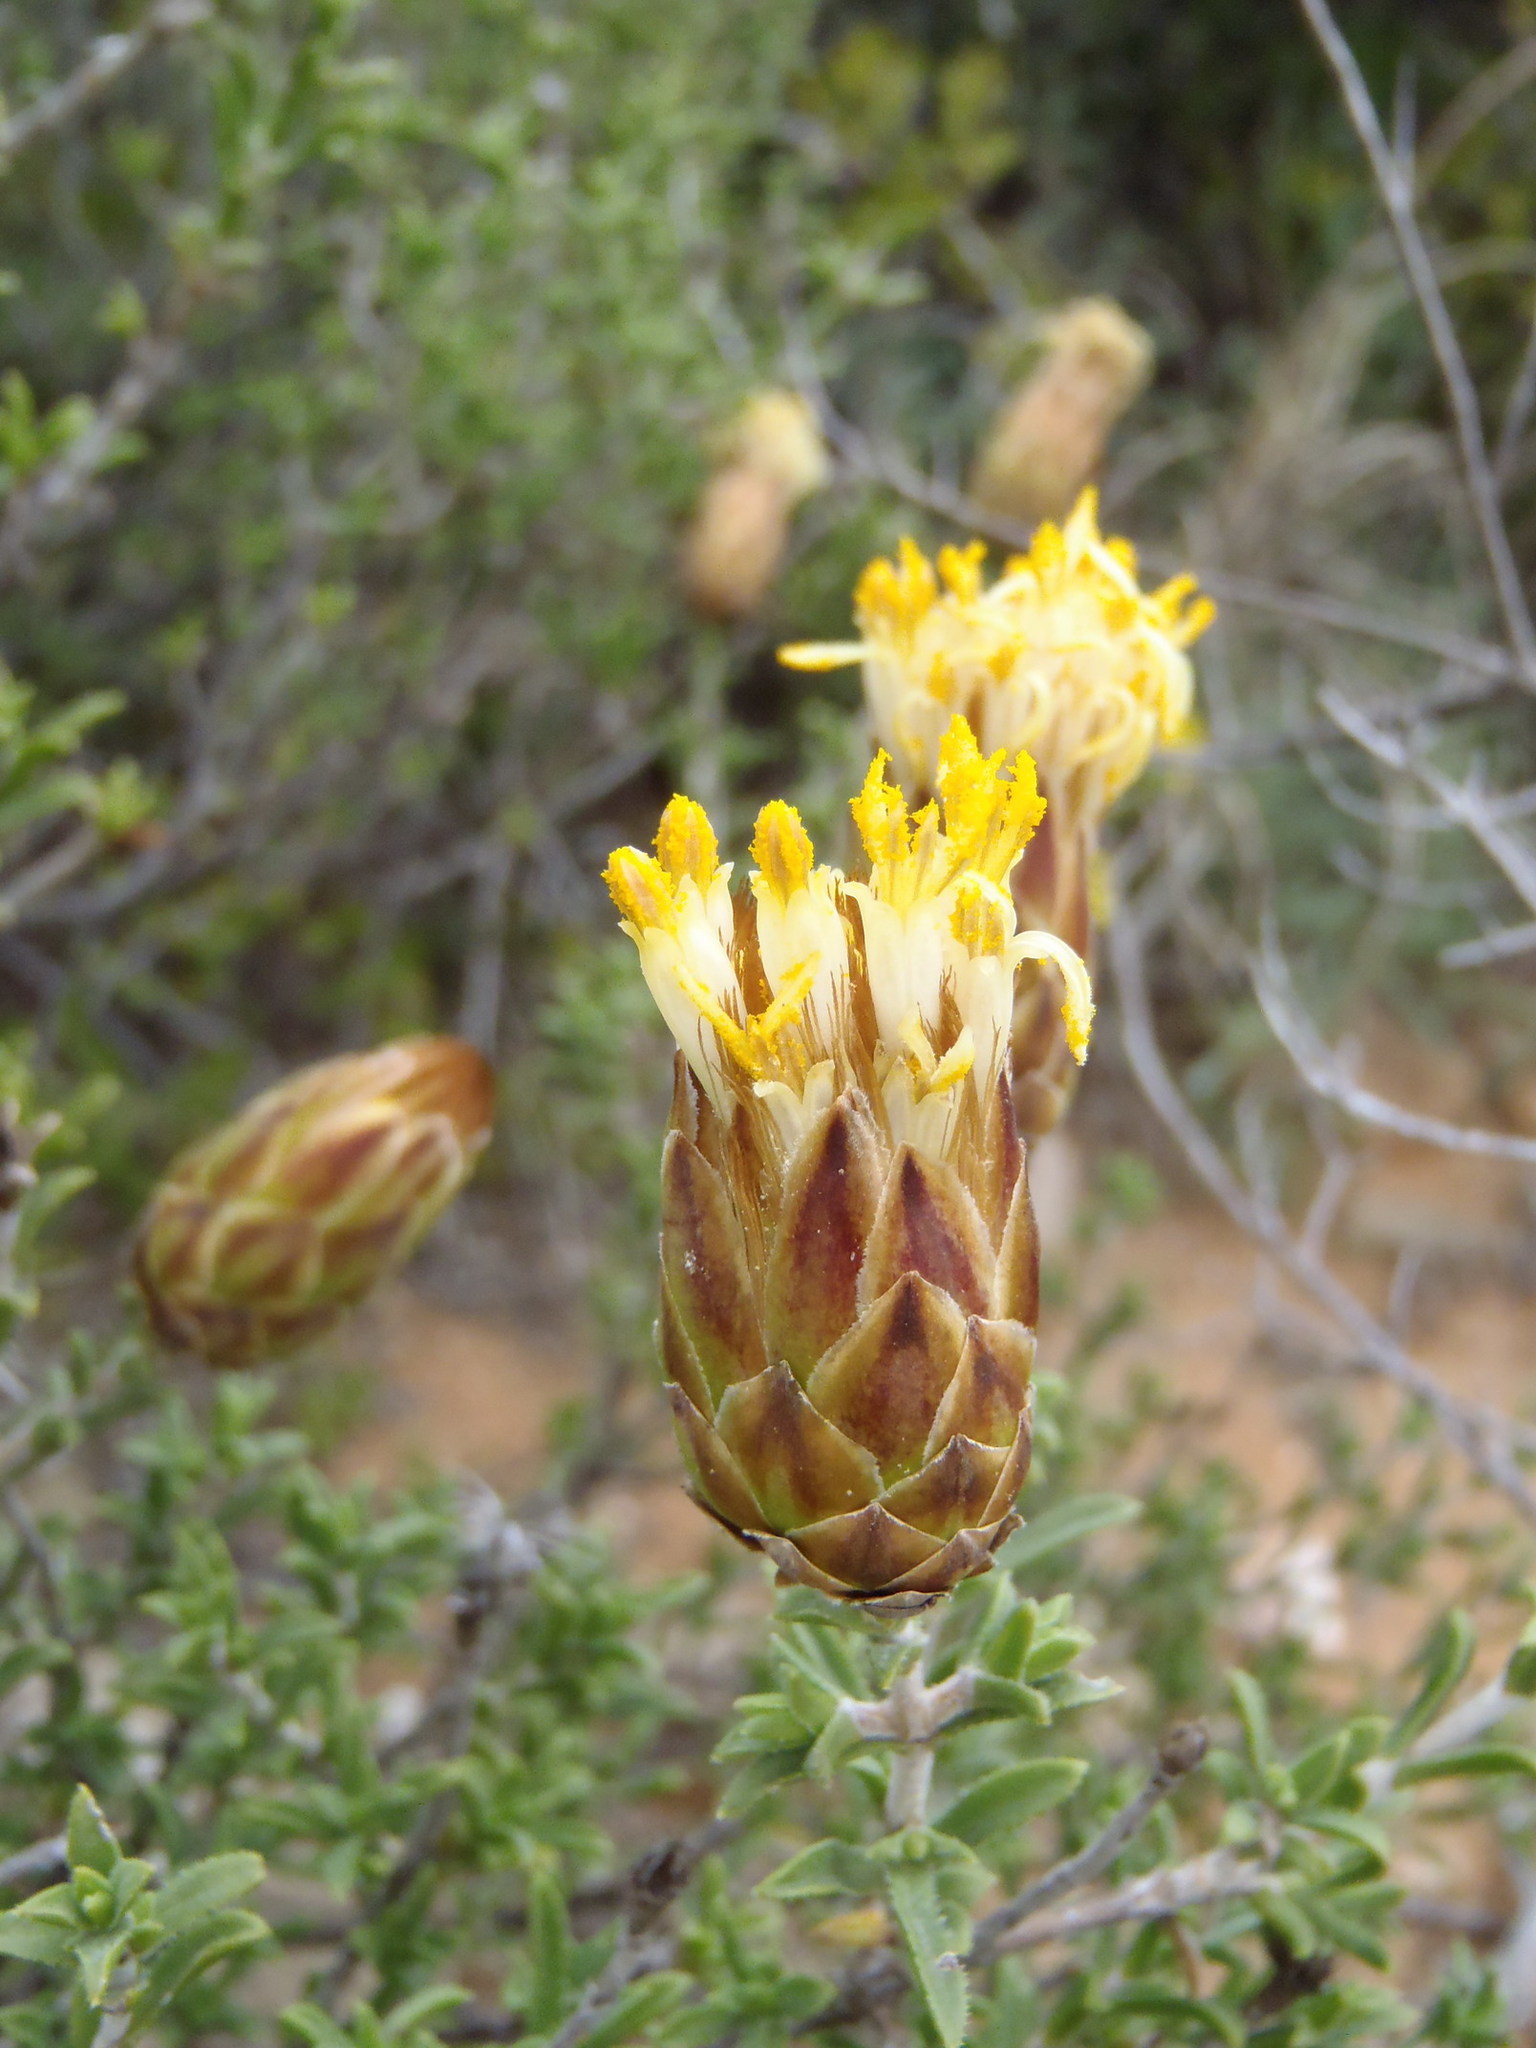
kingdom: Plantae
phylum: Tracheophyta
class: Magnoliopsida
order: Asterales
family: Asteraceae
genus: Pteronia
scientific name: Pteronia staehelinoides
